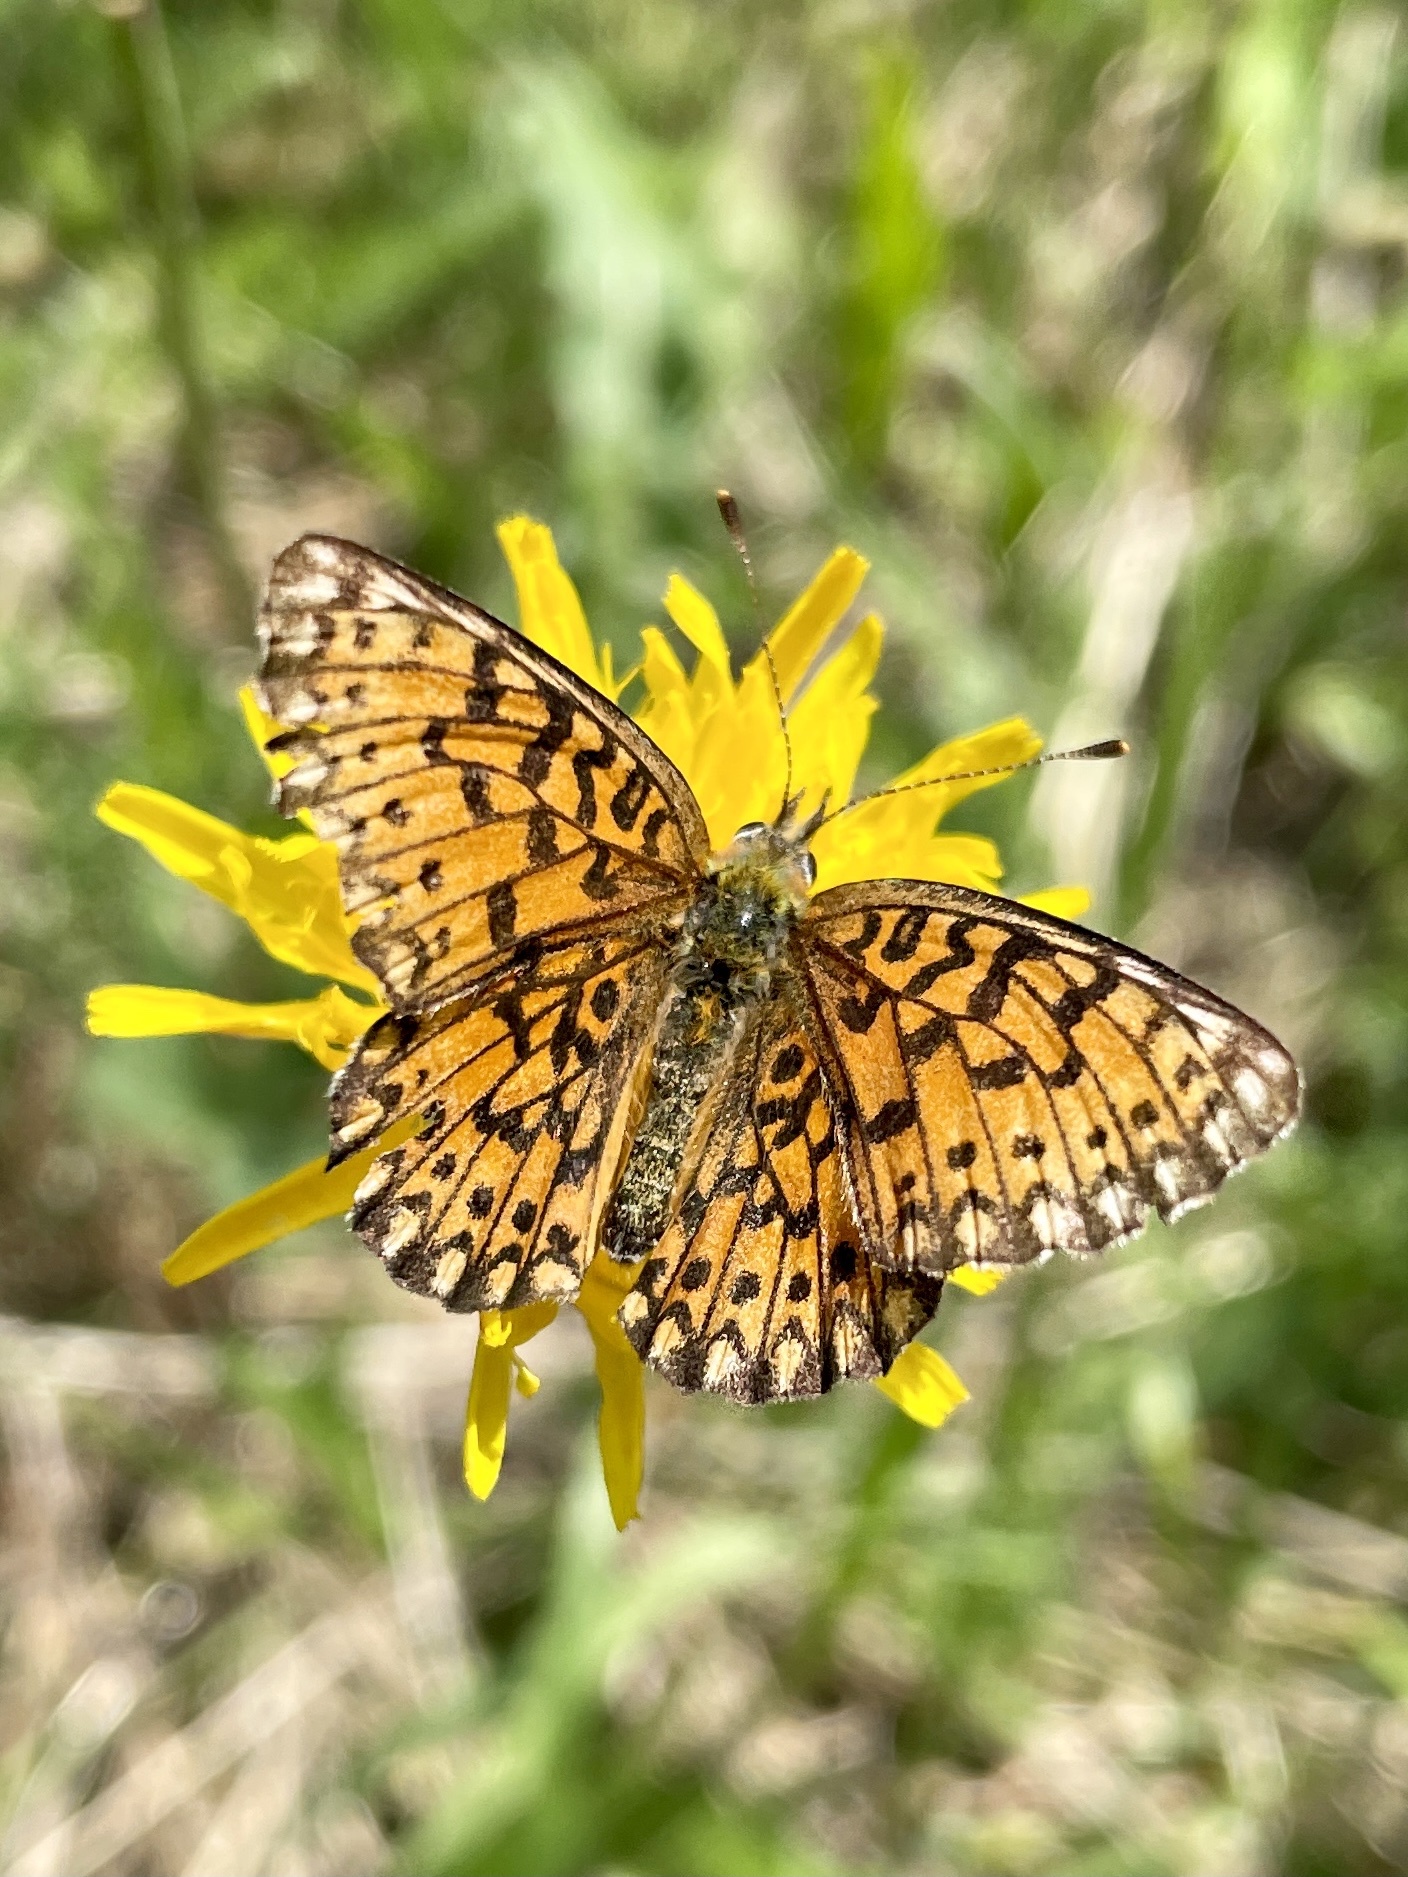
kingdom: Animalia
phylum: Arthropoda
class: Insecta
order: Lepidoptera
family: Nymphalidae
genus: Boloria
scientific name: Boloria selene
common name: Small pearl-bordered fritillary
